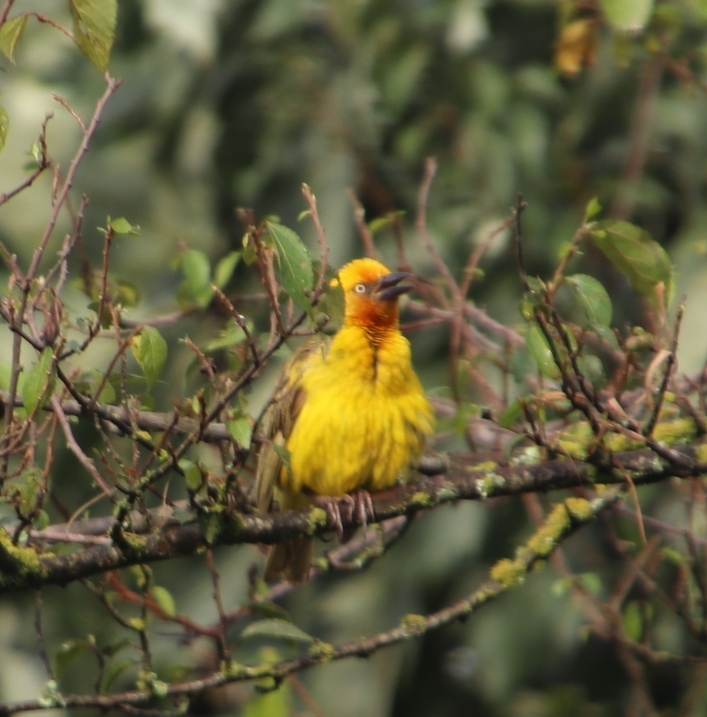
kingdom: Animalia
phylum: Chordata
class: Aves
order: Passeriformes
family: Ploceidae
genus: Ploceus
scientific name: Ploceus capensis
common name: Cape weaver
